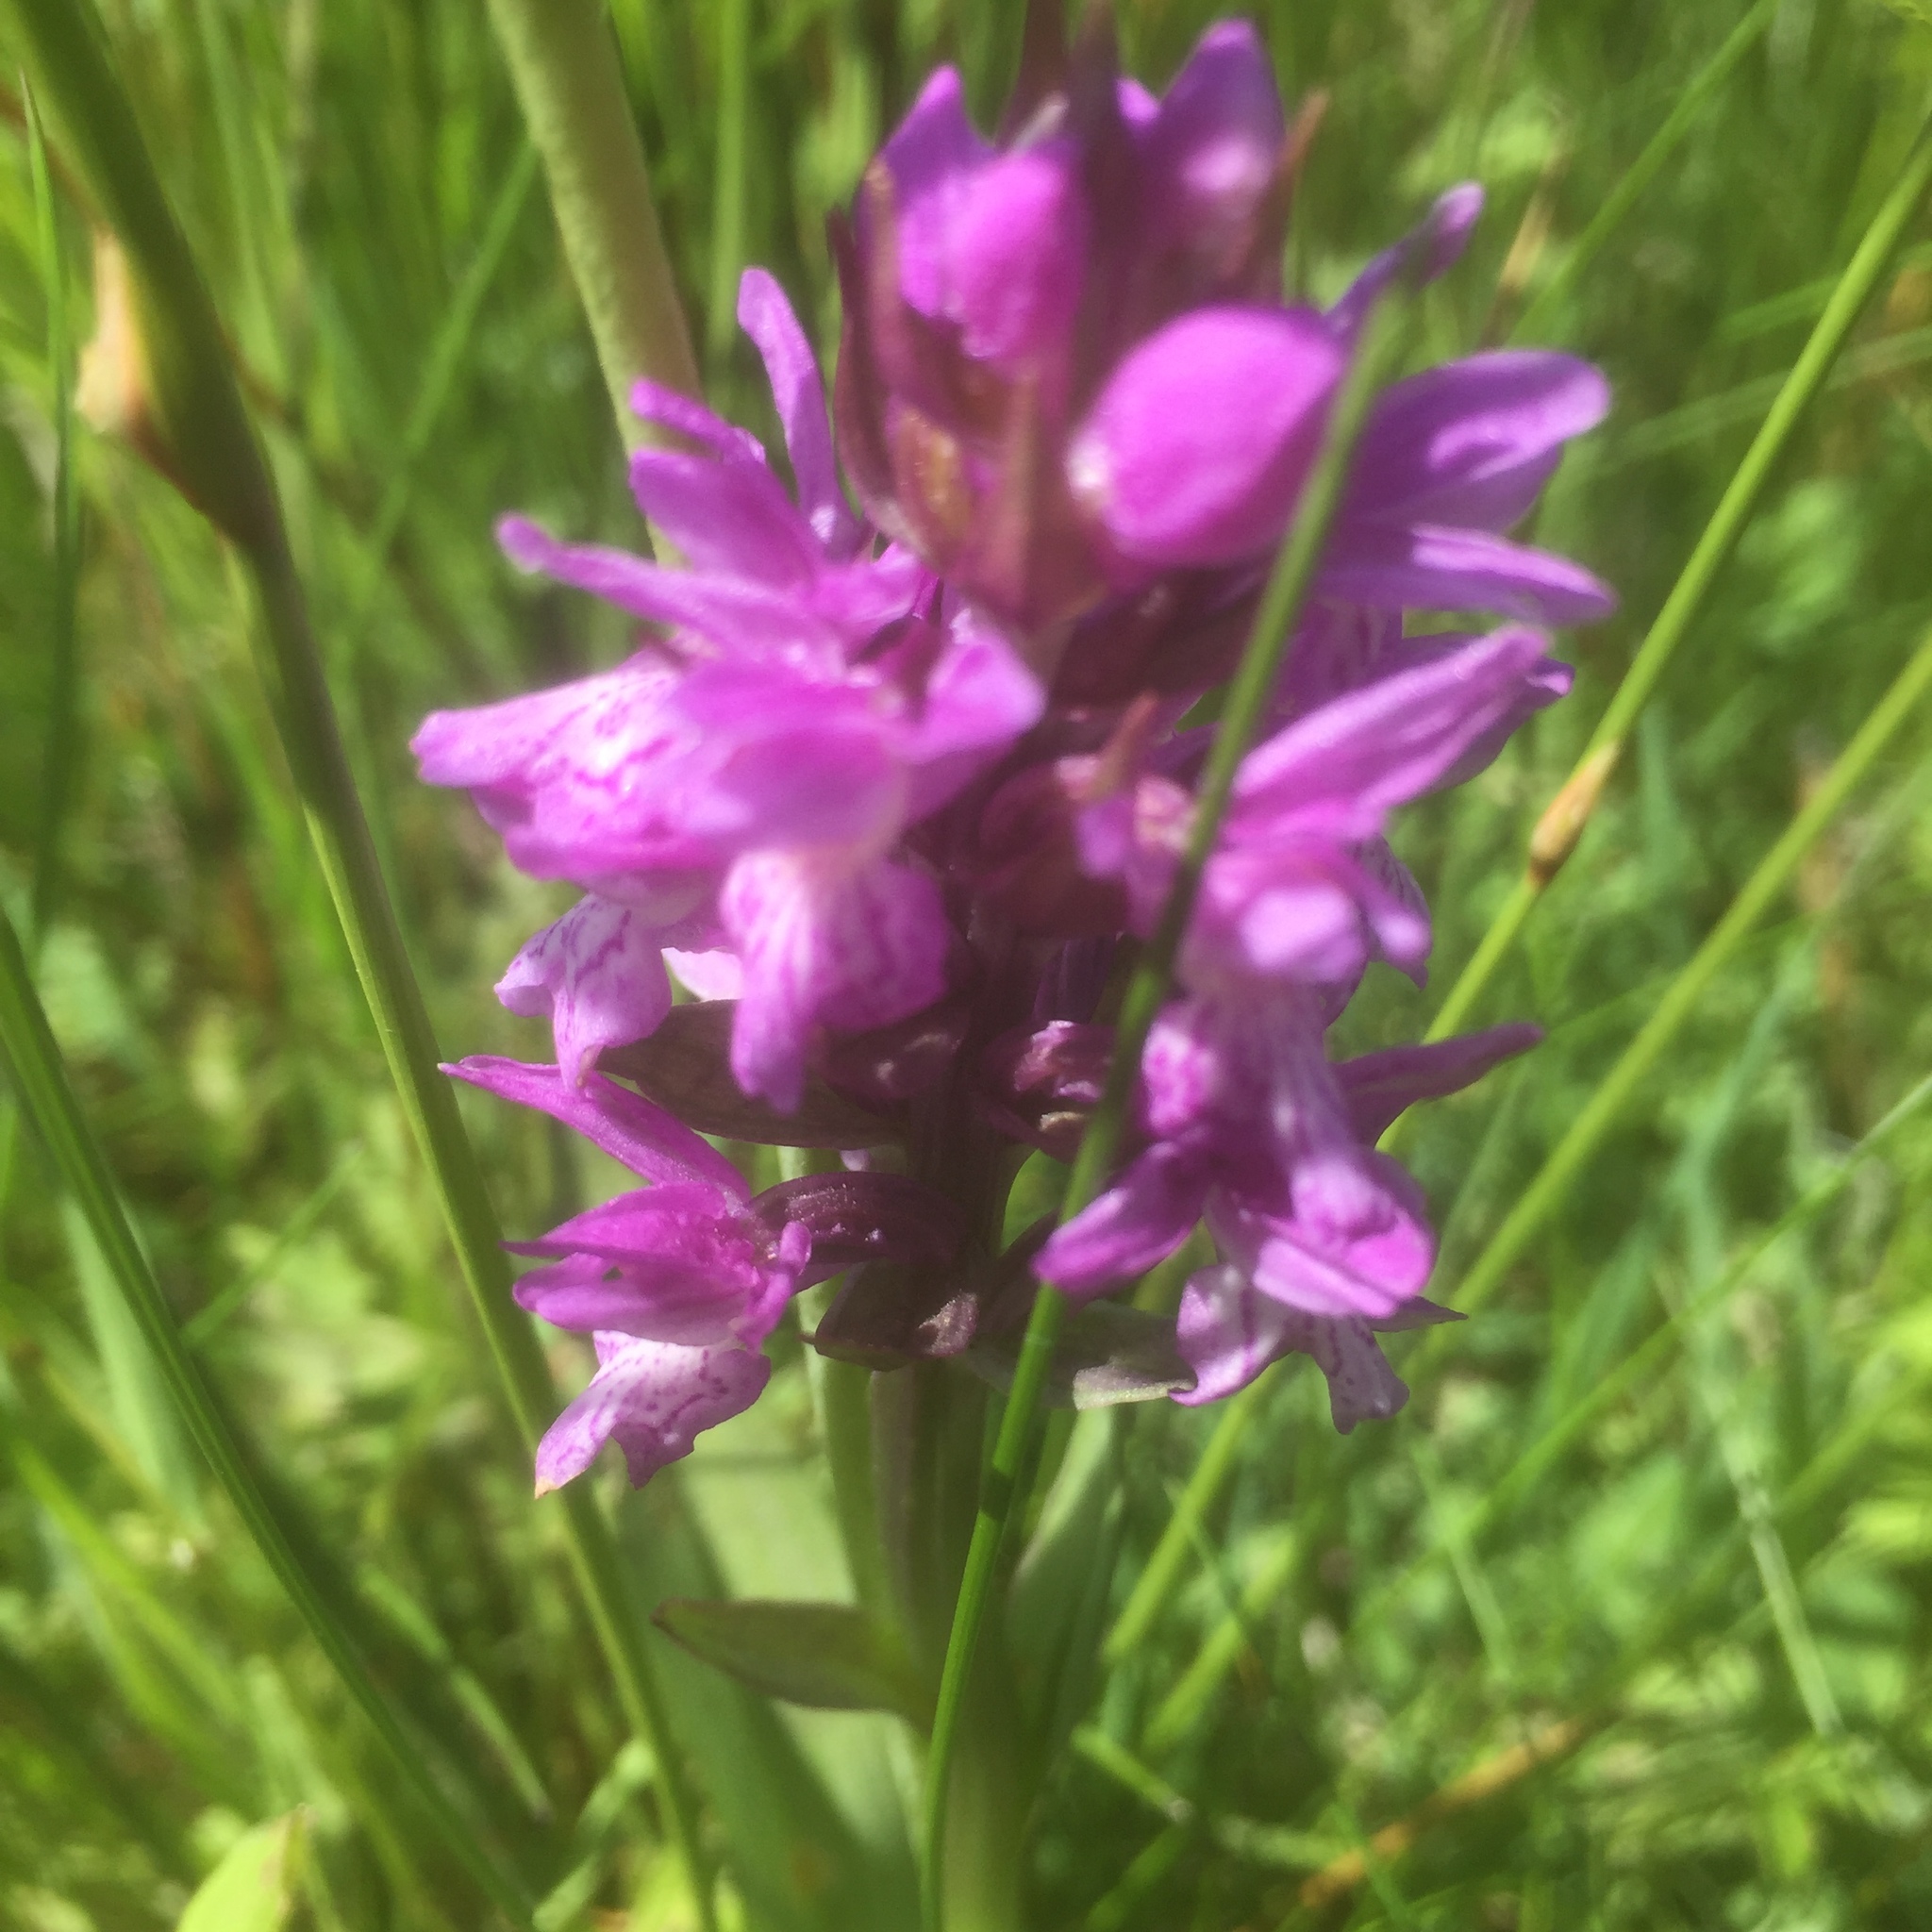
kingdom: Plantae
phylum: Tracheophyta
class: Liliopsida
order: Asparagales
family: Orchidaceae
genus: Dactylorhiza
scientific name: Dactylorhiza majalis
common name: Marsh orchid
